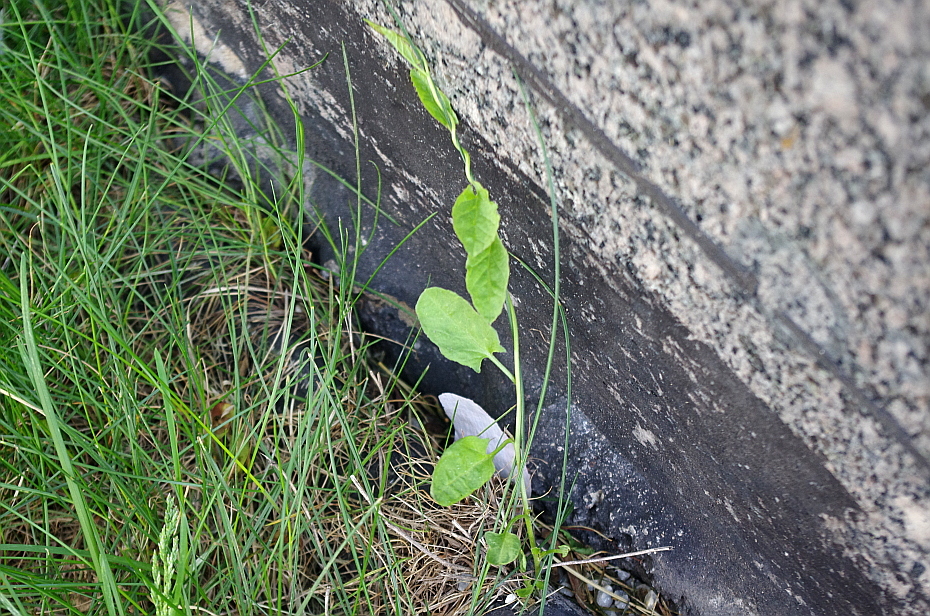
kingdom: Plantae
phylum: Tracheophyta
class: Magnoliopsida
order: Solanales
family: Convolvulaceae
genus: Convolvulus
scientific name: Convolvulus arvensis
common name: Field bindweed
